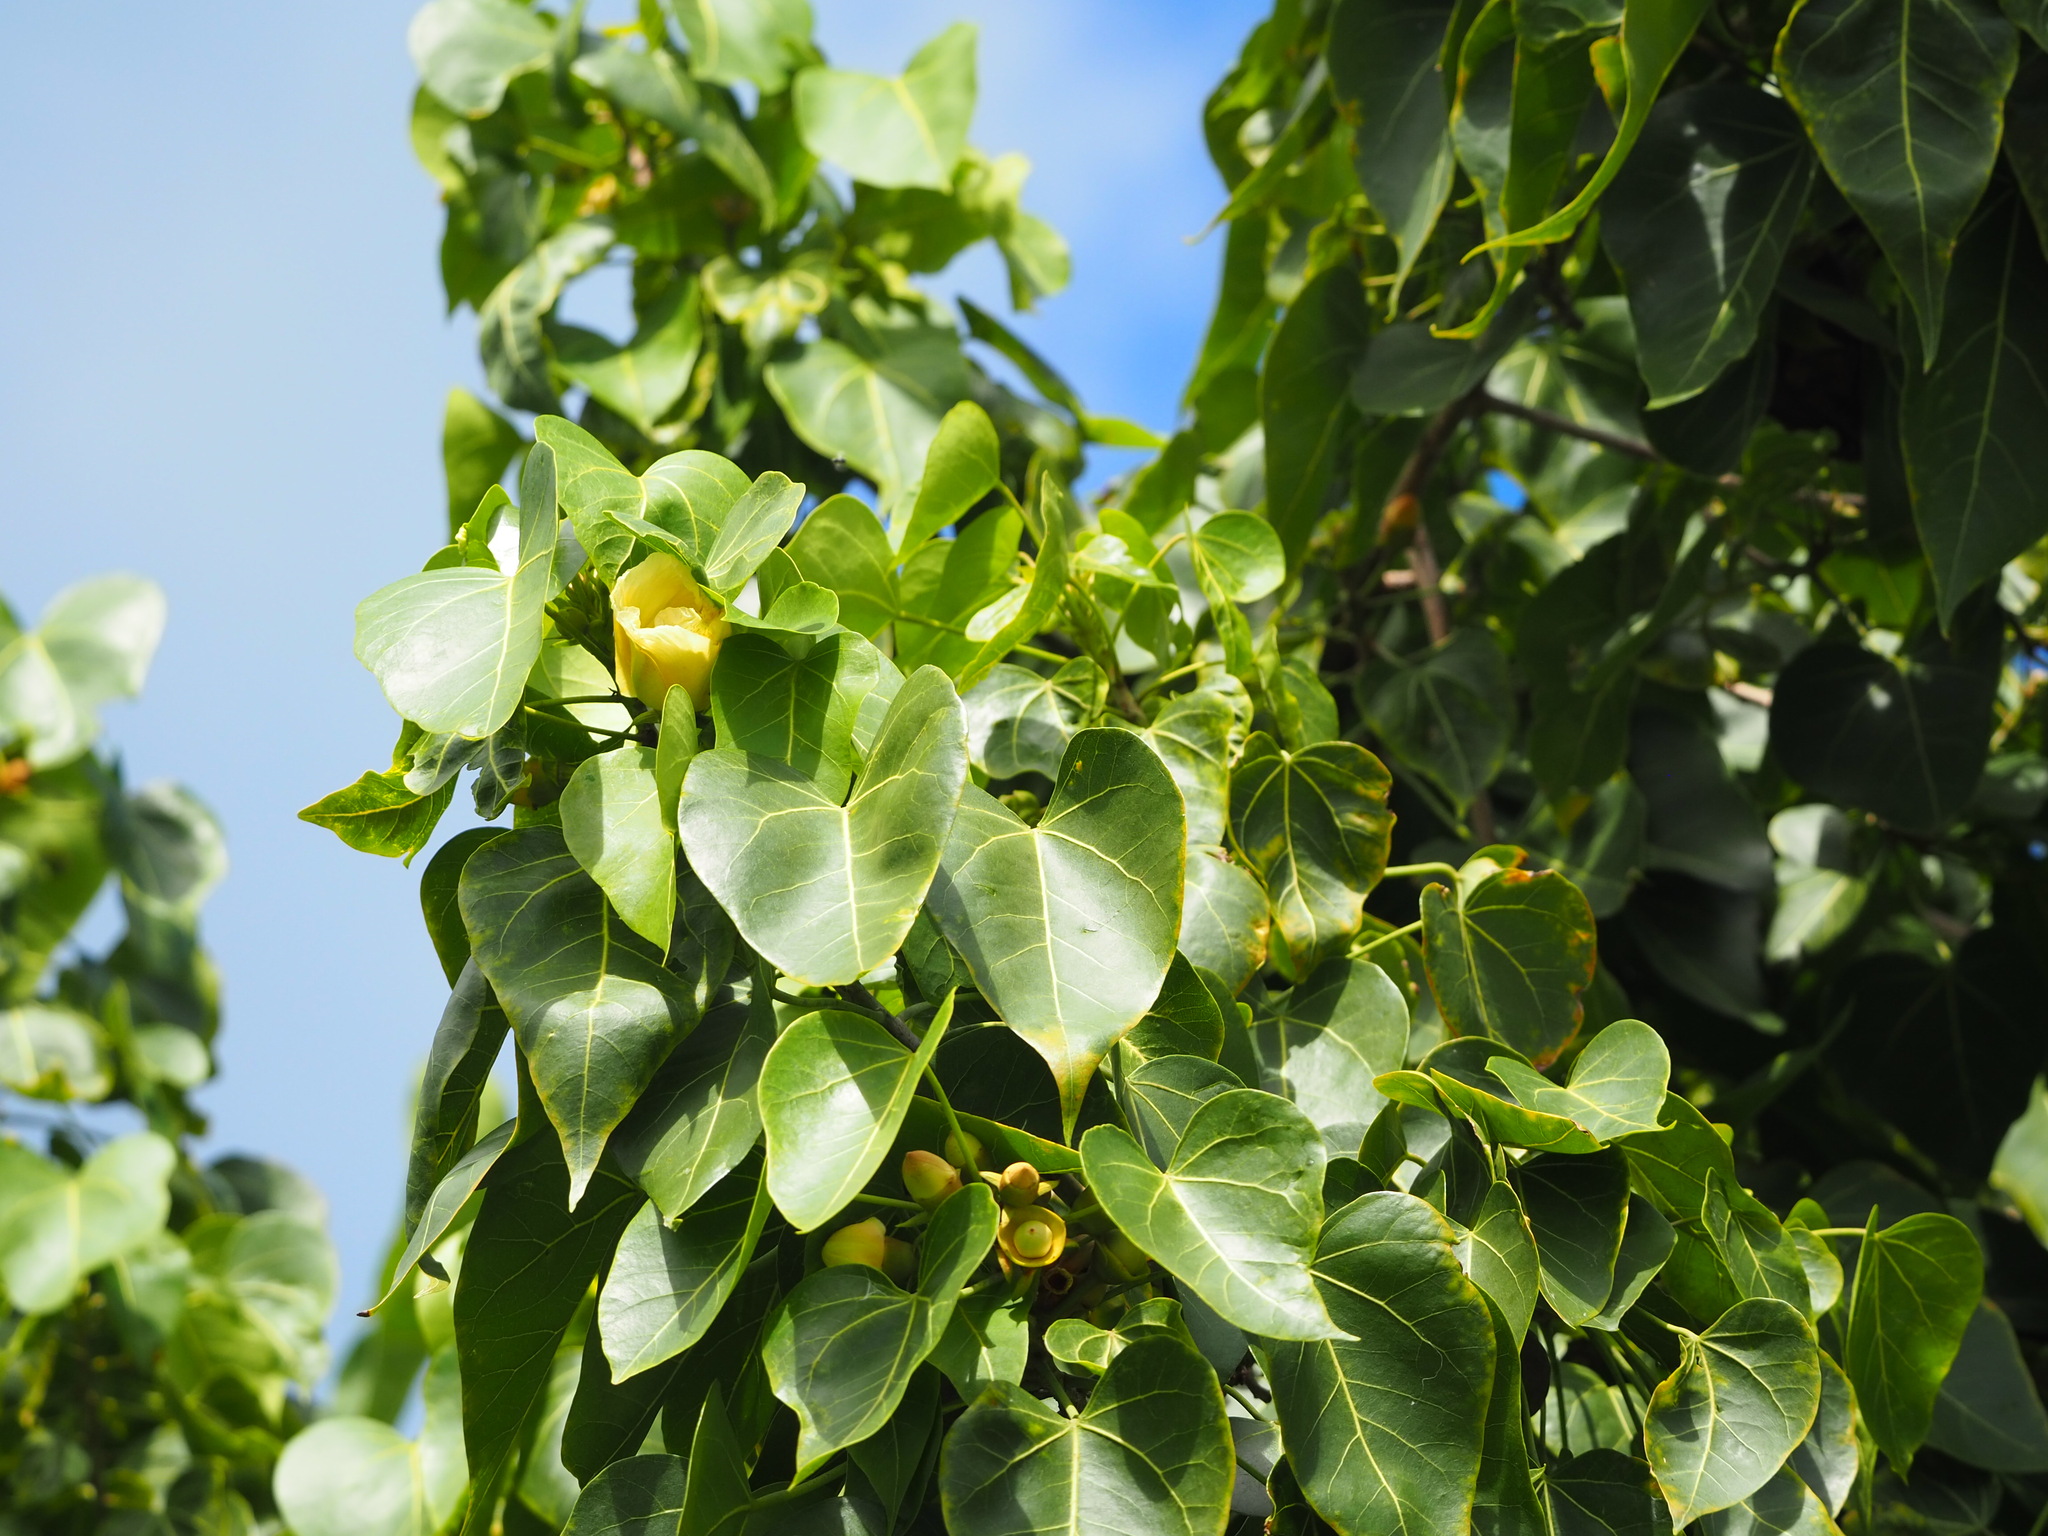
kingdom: Plantae
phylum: Tracheophyta
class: Magnoliopsida
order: Malvales
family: Malvaceae
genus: Thespesia
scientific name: Thespesia populnea
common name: Seaside mahoe
